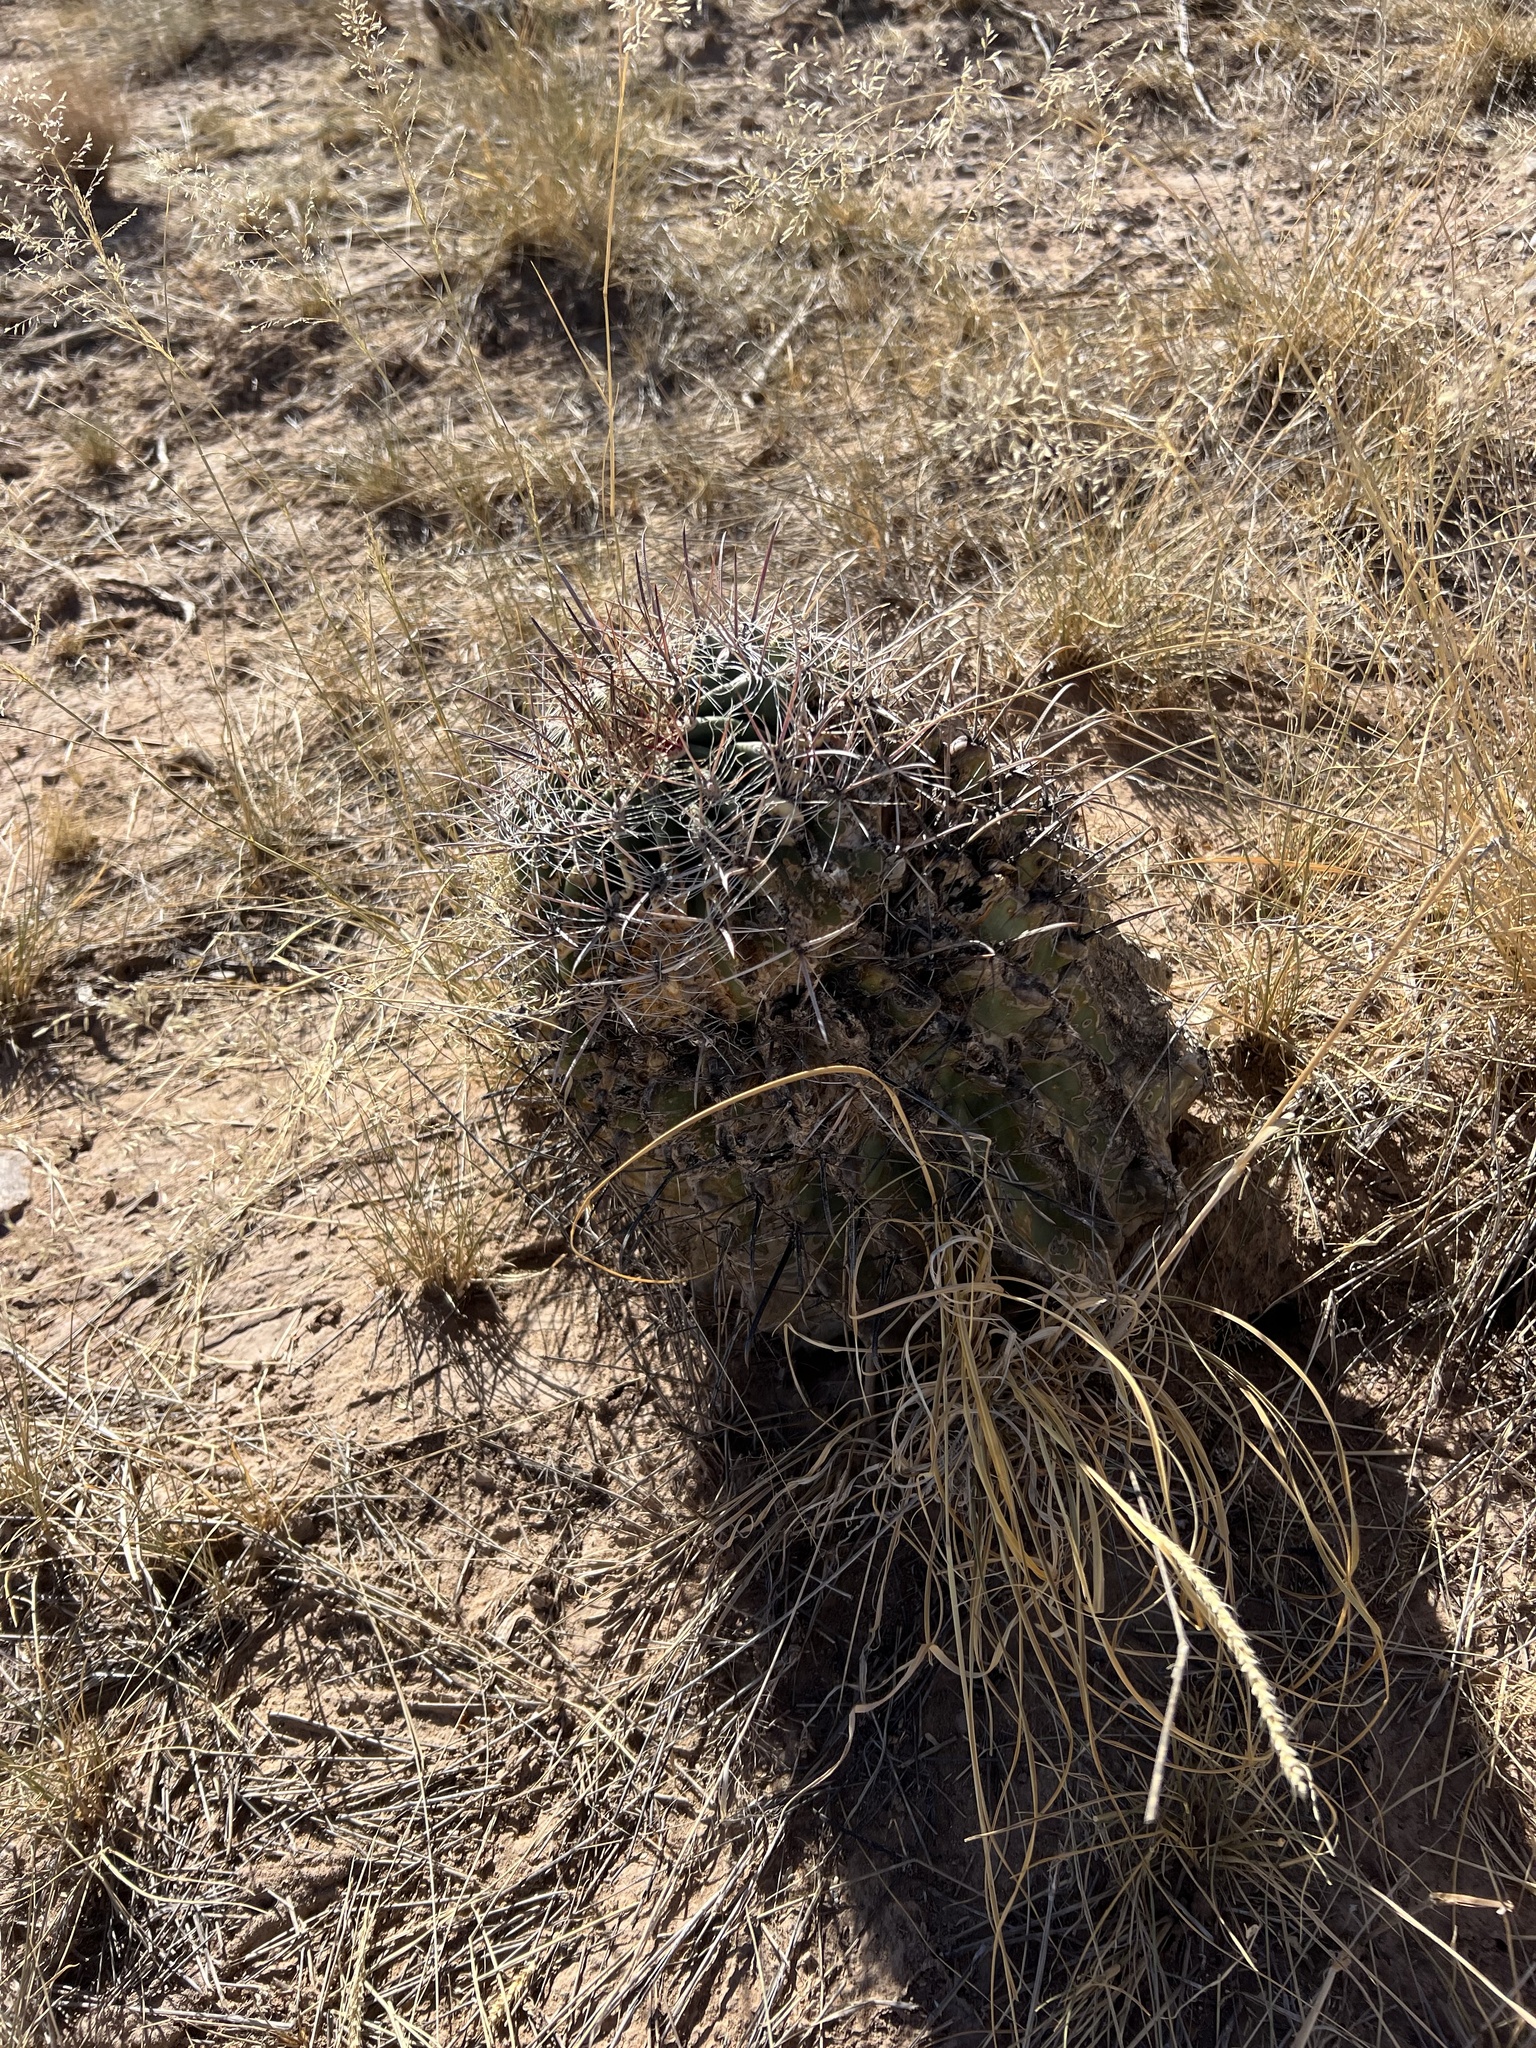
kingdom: Plantae
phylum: Tracheophyta
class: Magnoliopsida
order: Caryophyllales
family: Cactaceae
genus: Ferocactus
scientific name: Ferocactus wislizeni
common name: Candy barrel cactus
